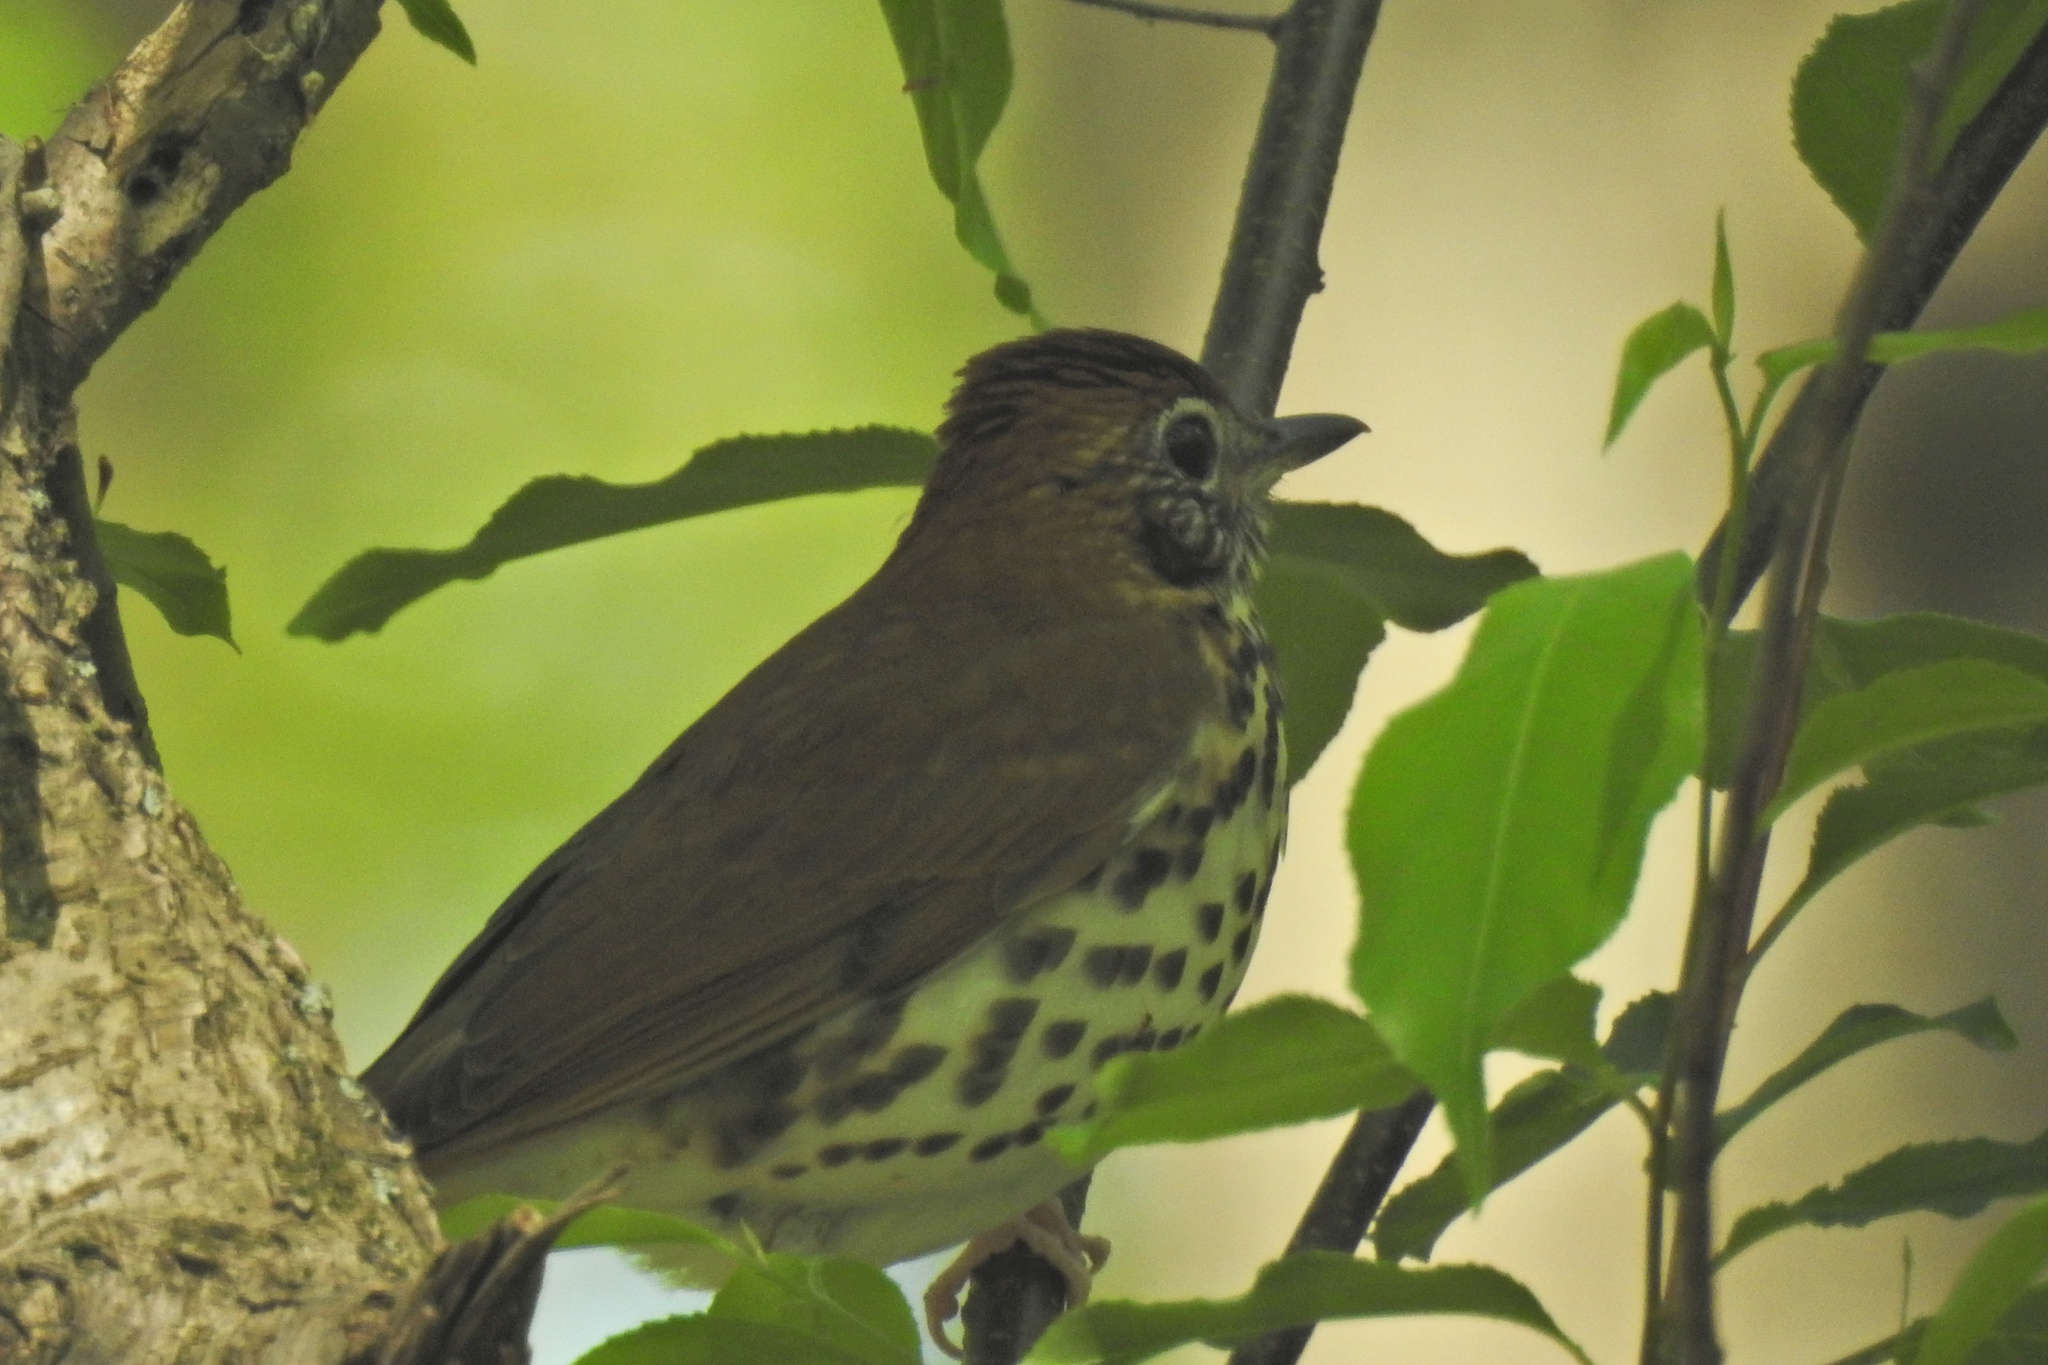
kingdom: Animalia
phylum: Chordata
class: Aves
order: Passeriformes
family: Turdidae
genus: Hylocichla
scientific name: Hylocichla mustelina
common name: Wood thrush
